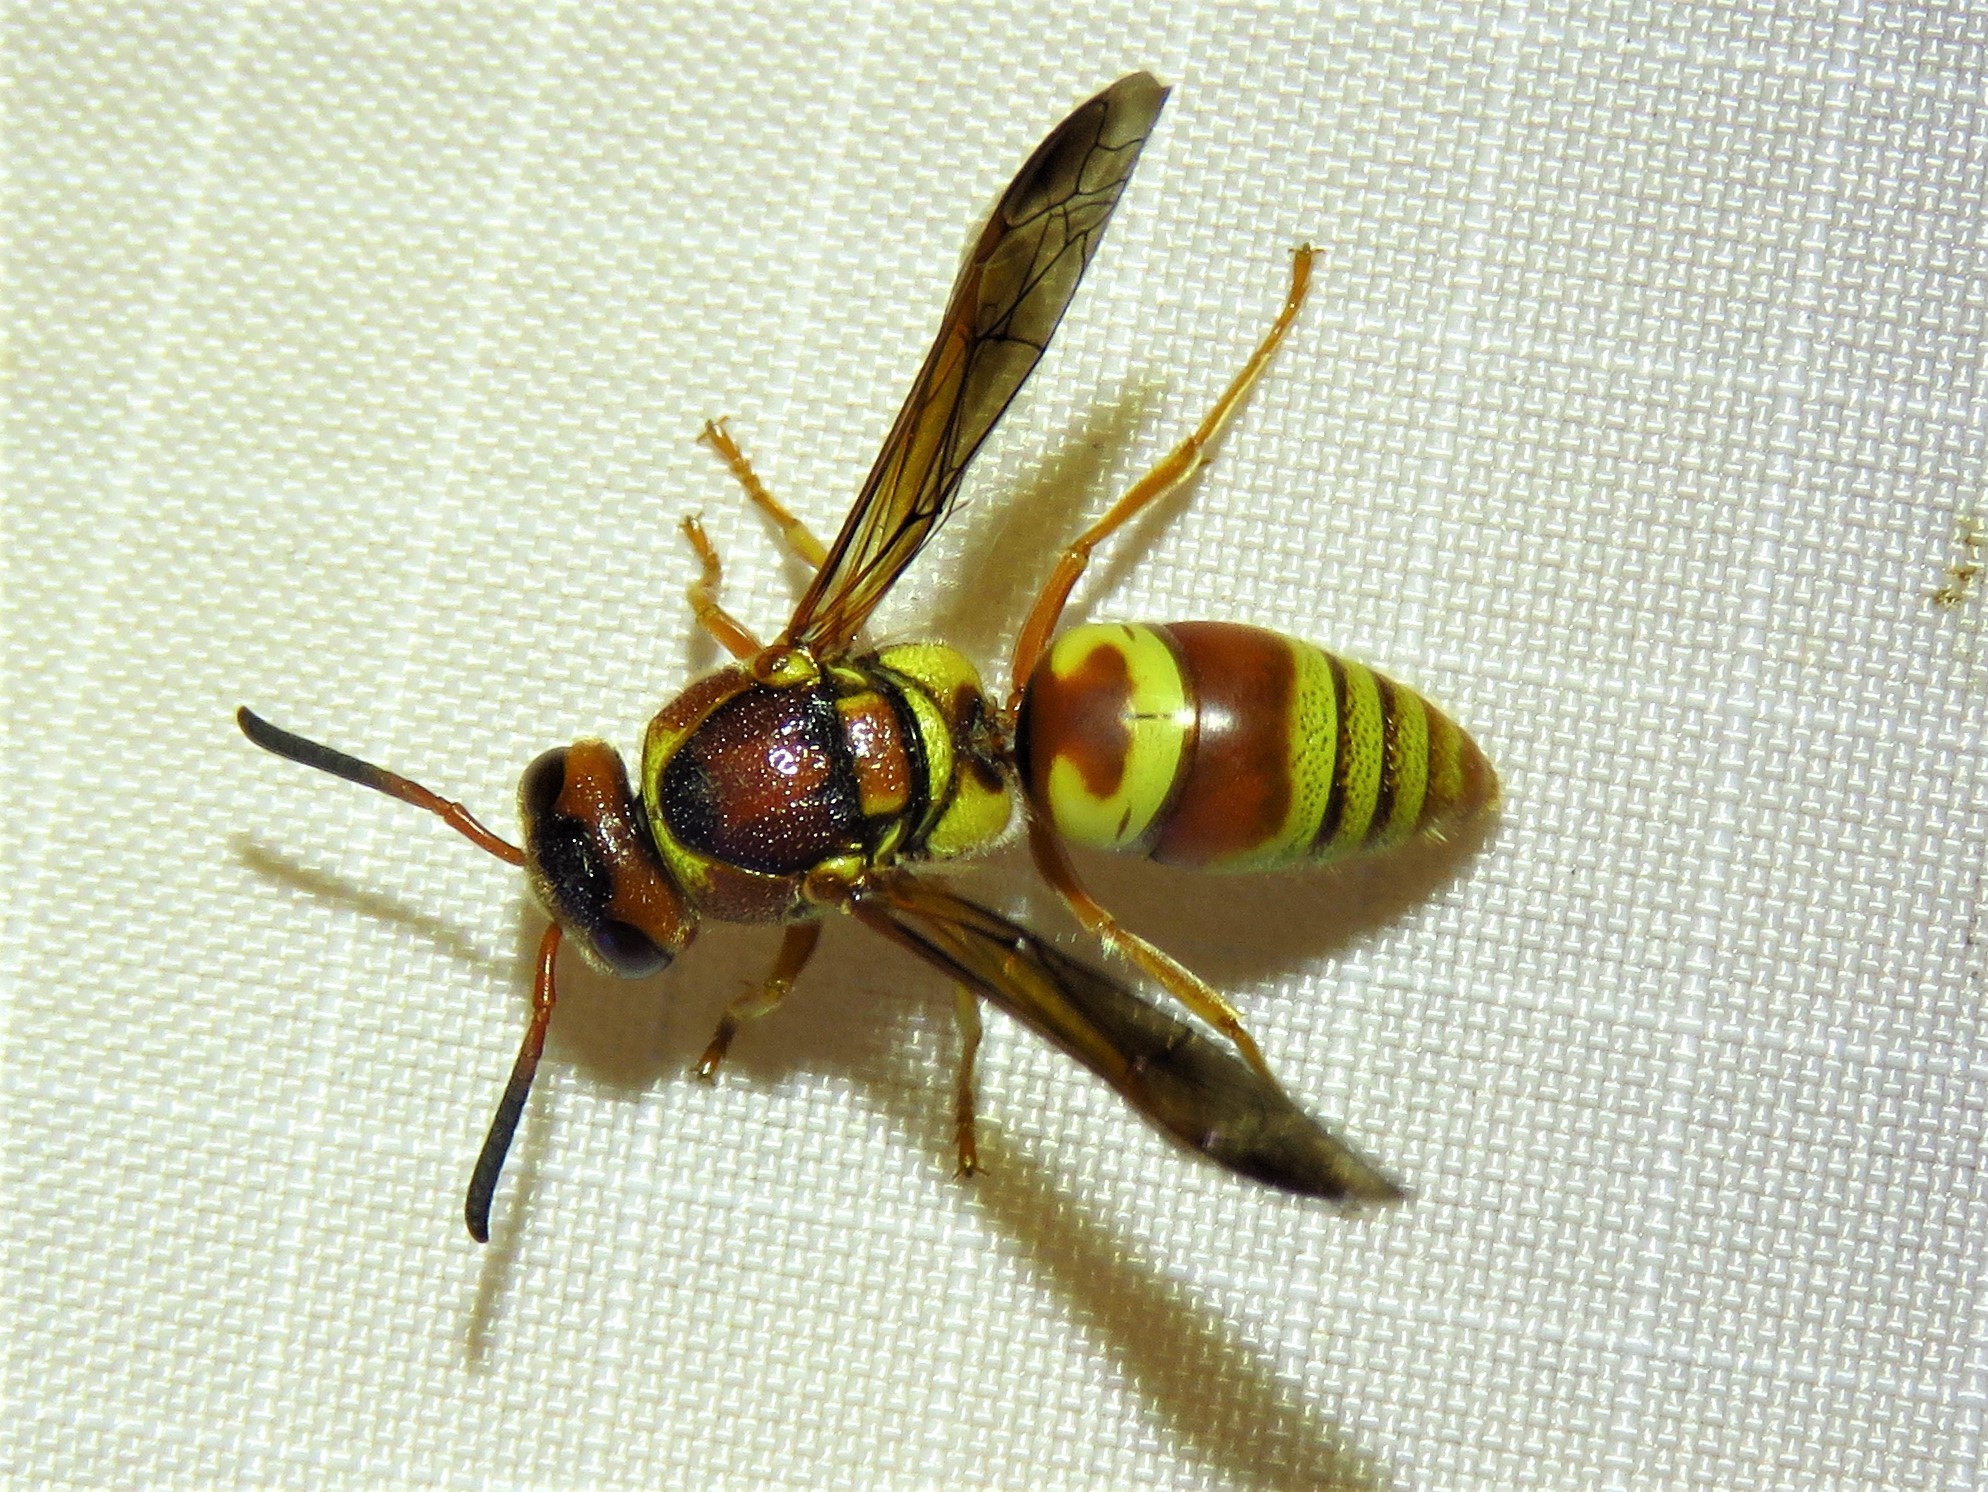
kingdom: Animalia
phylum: Arthropoda
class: Insecta
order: Hymenoptera
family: Eumenidae
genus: Euodynerus
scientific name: Euodynerus pratensis
